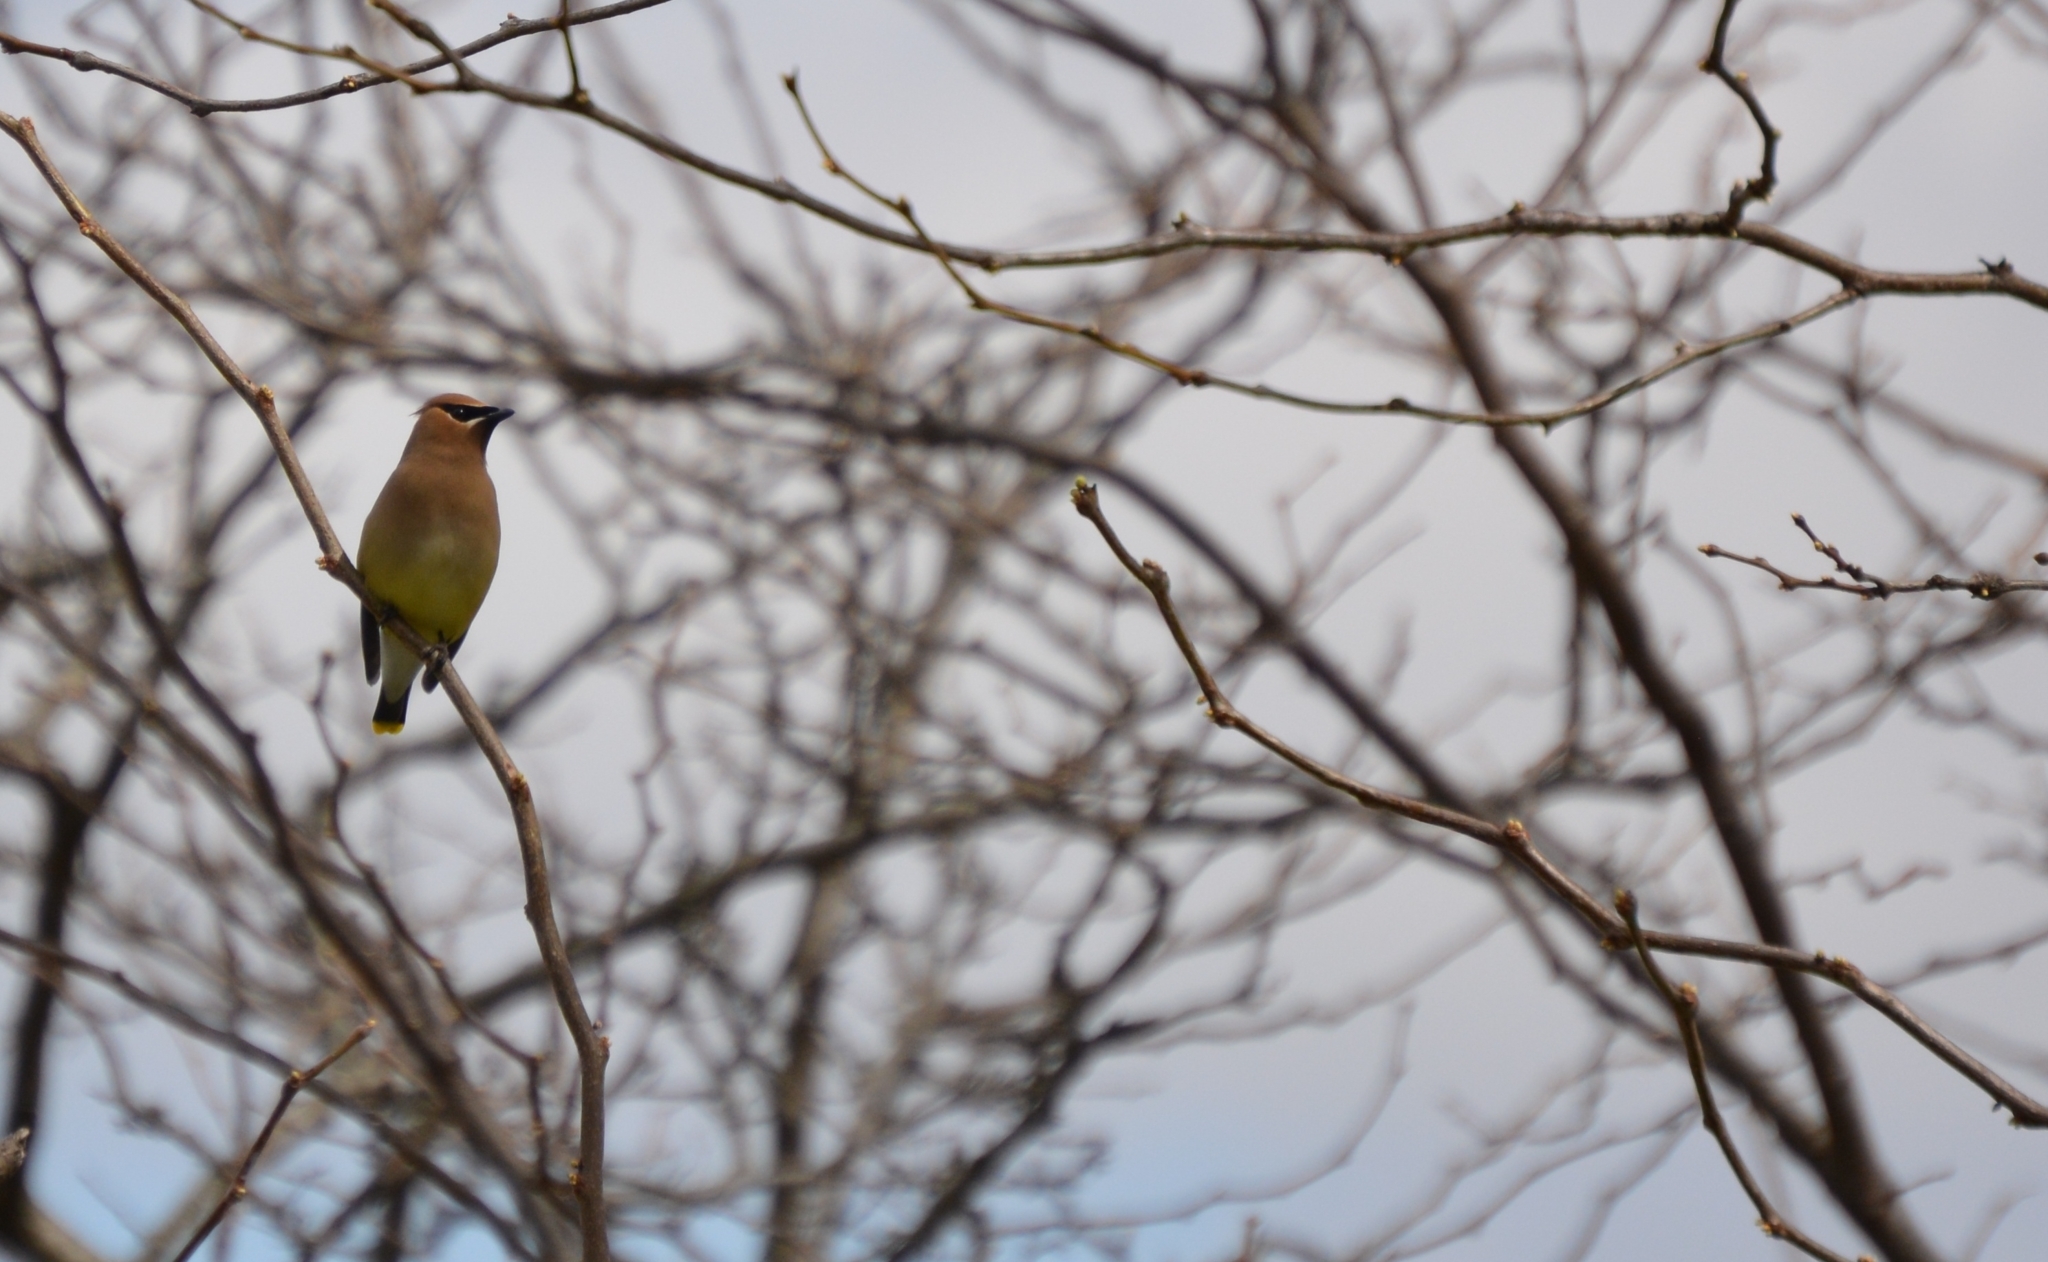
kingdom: Animalia
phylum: Chordata
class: Aves
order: Passeriformes
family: Bombycillidae
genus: Bombycilla
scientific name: Bombycilla cedrorum
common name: Cedar waxwing
